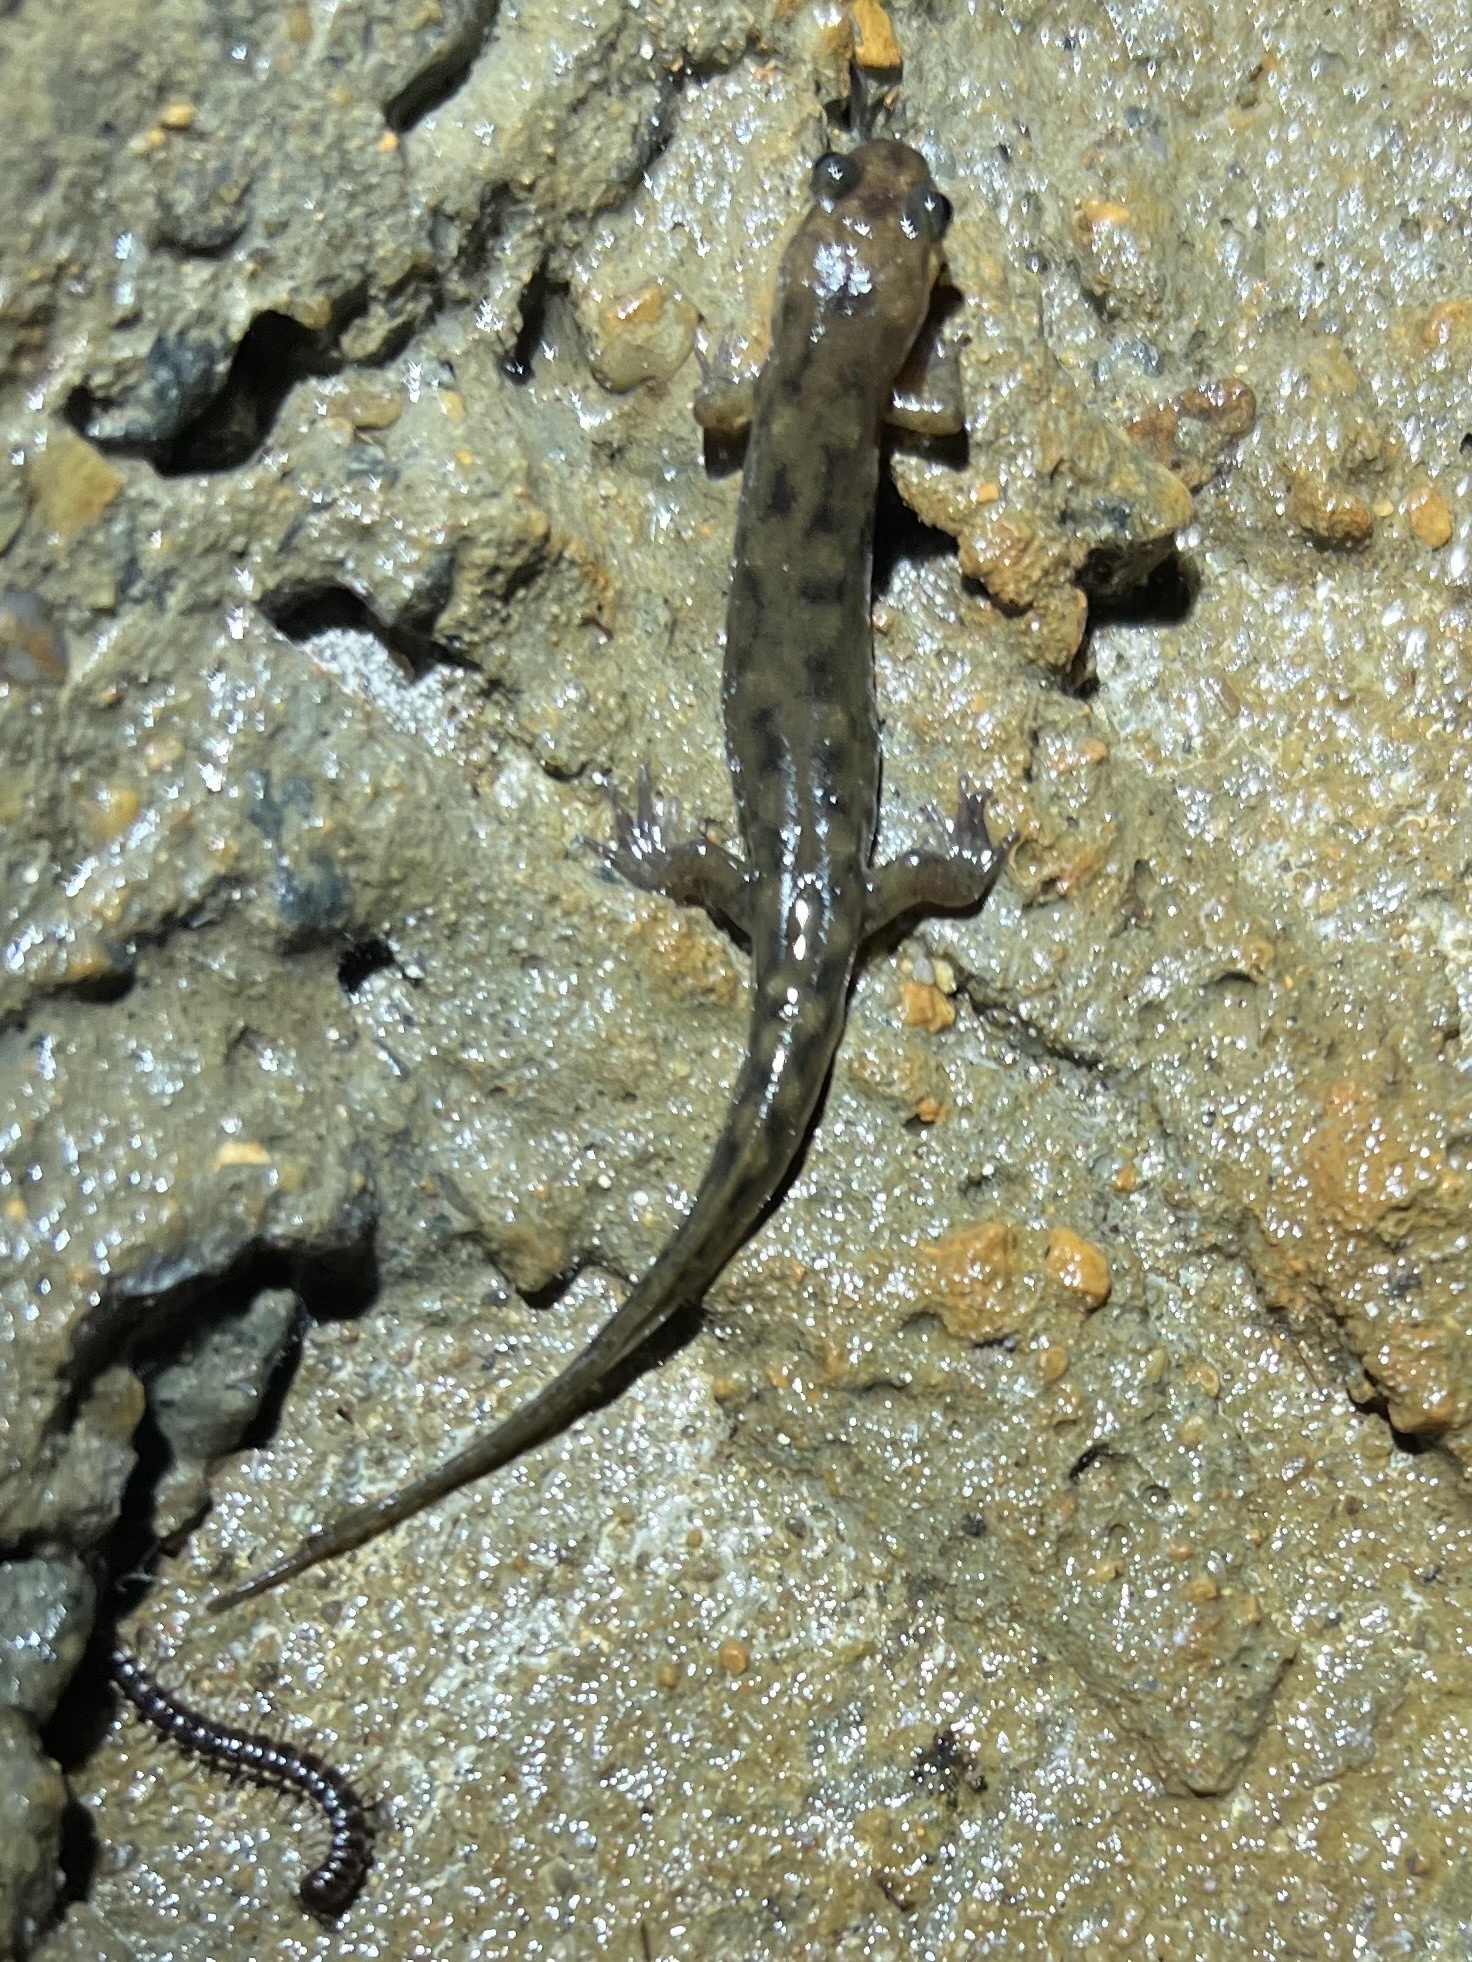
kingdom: Animalia
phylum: Chordata
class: Amphibia
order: Caudata
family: Plethodontidae
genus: Desmognathus
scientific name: Desmognathus monticola
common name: Seal salamander
